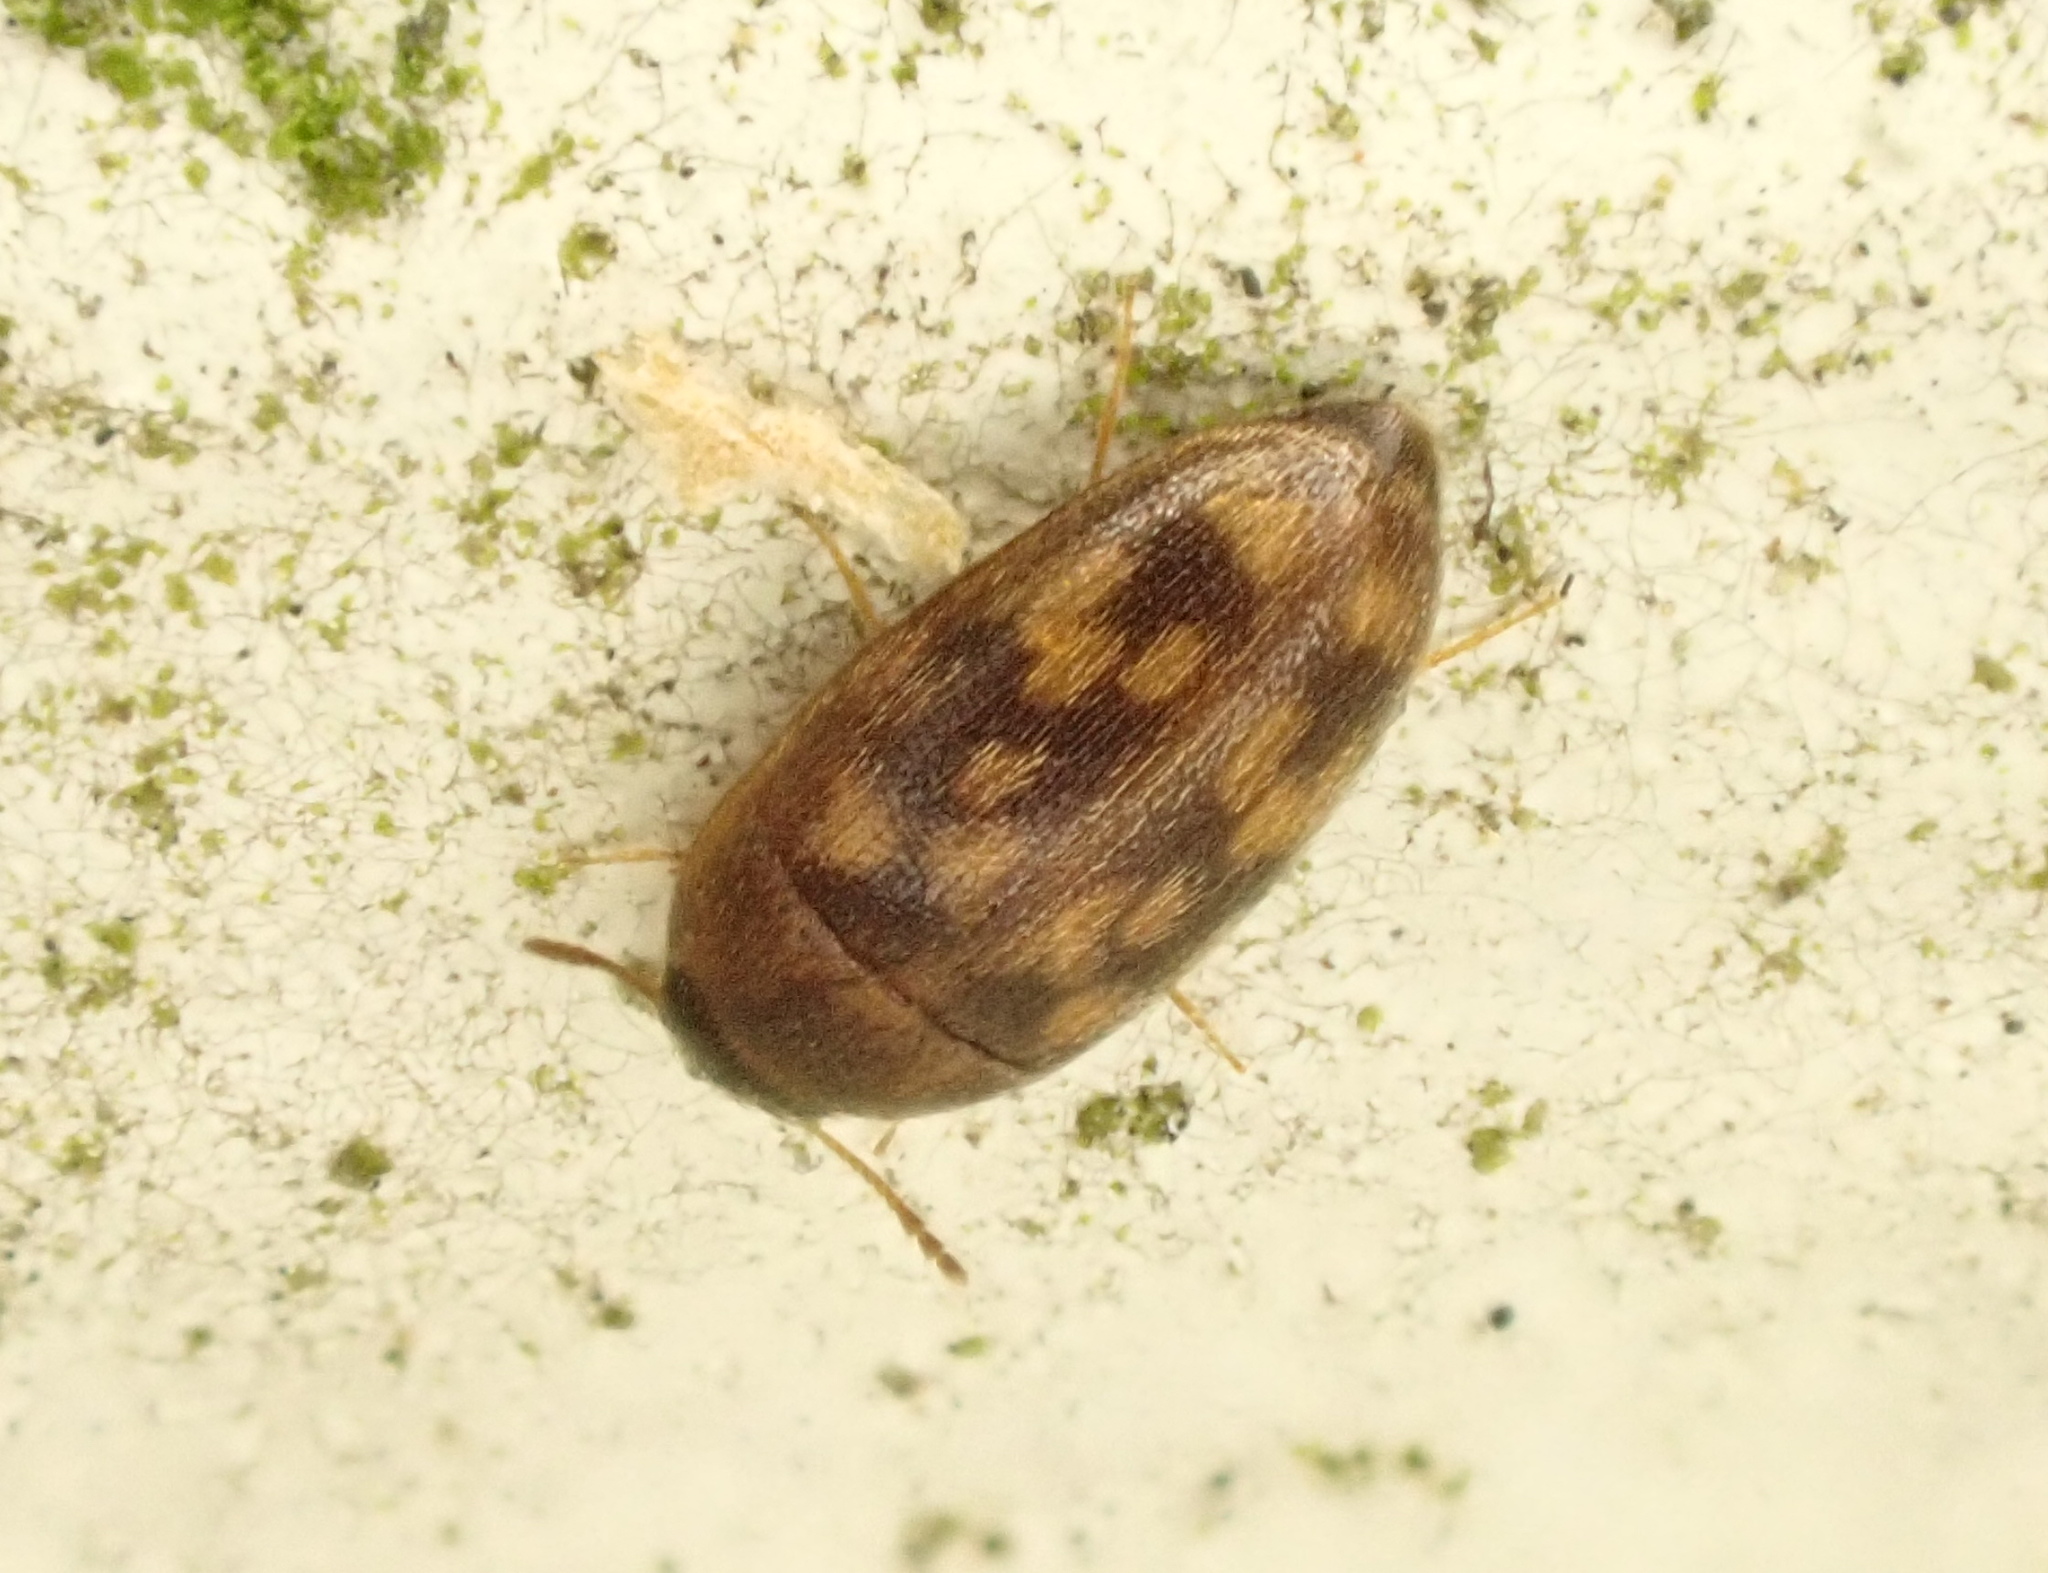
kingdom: Animalia
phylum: Arthropoda
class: Insecta
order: Coleoptera
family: Mycetophagidae
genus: Litargus
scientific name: Litargus vestitus
